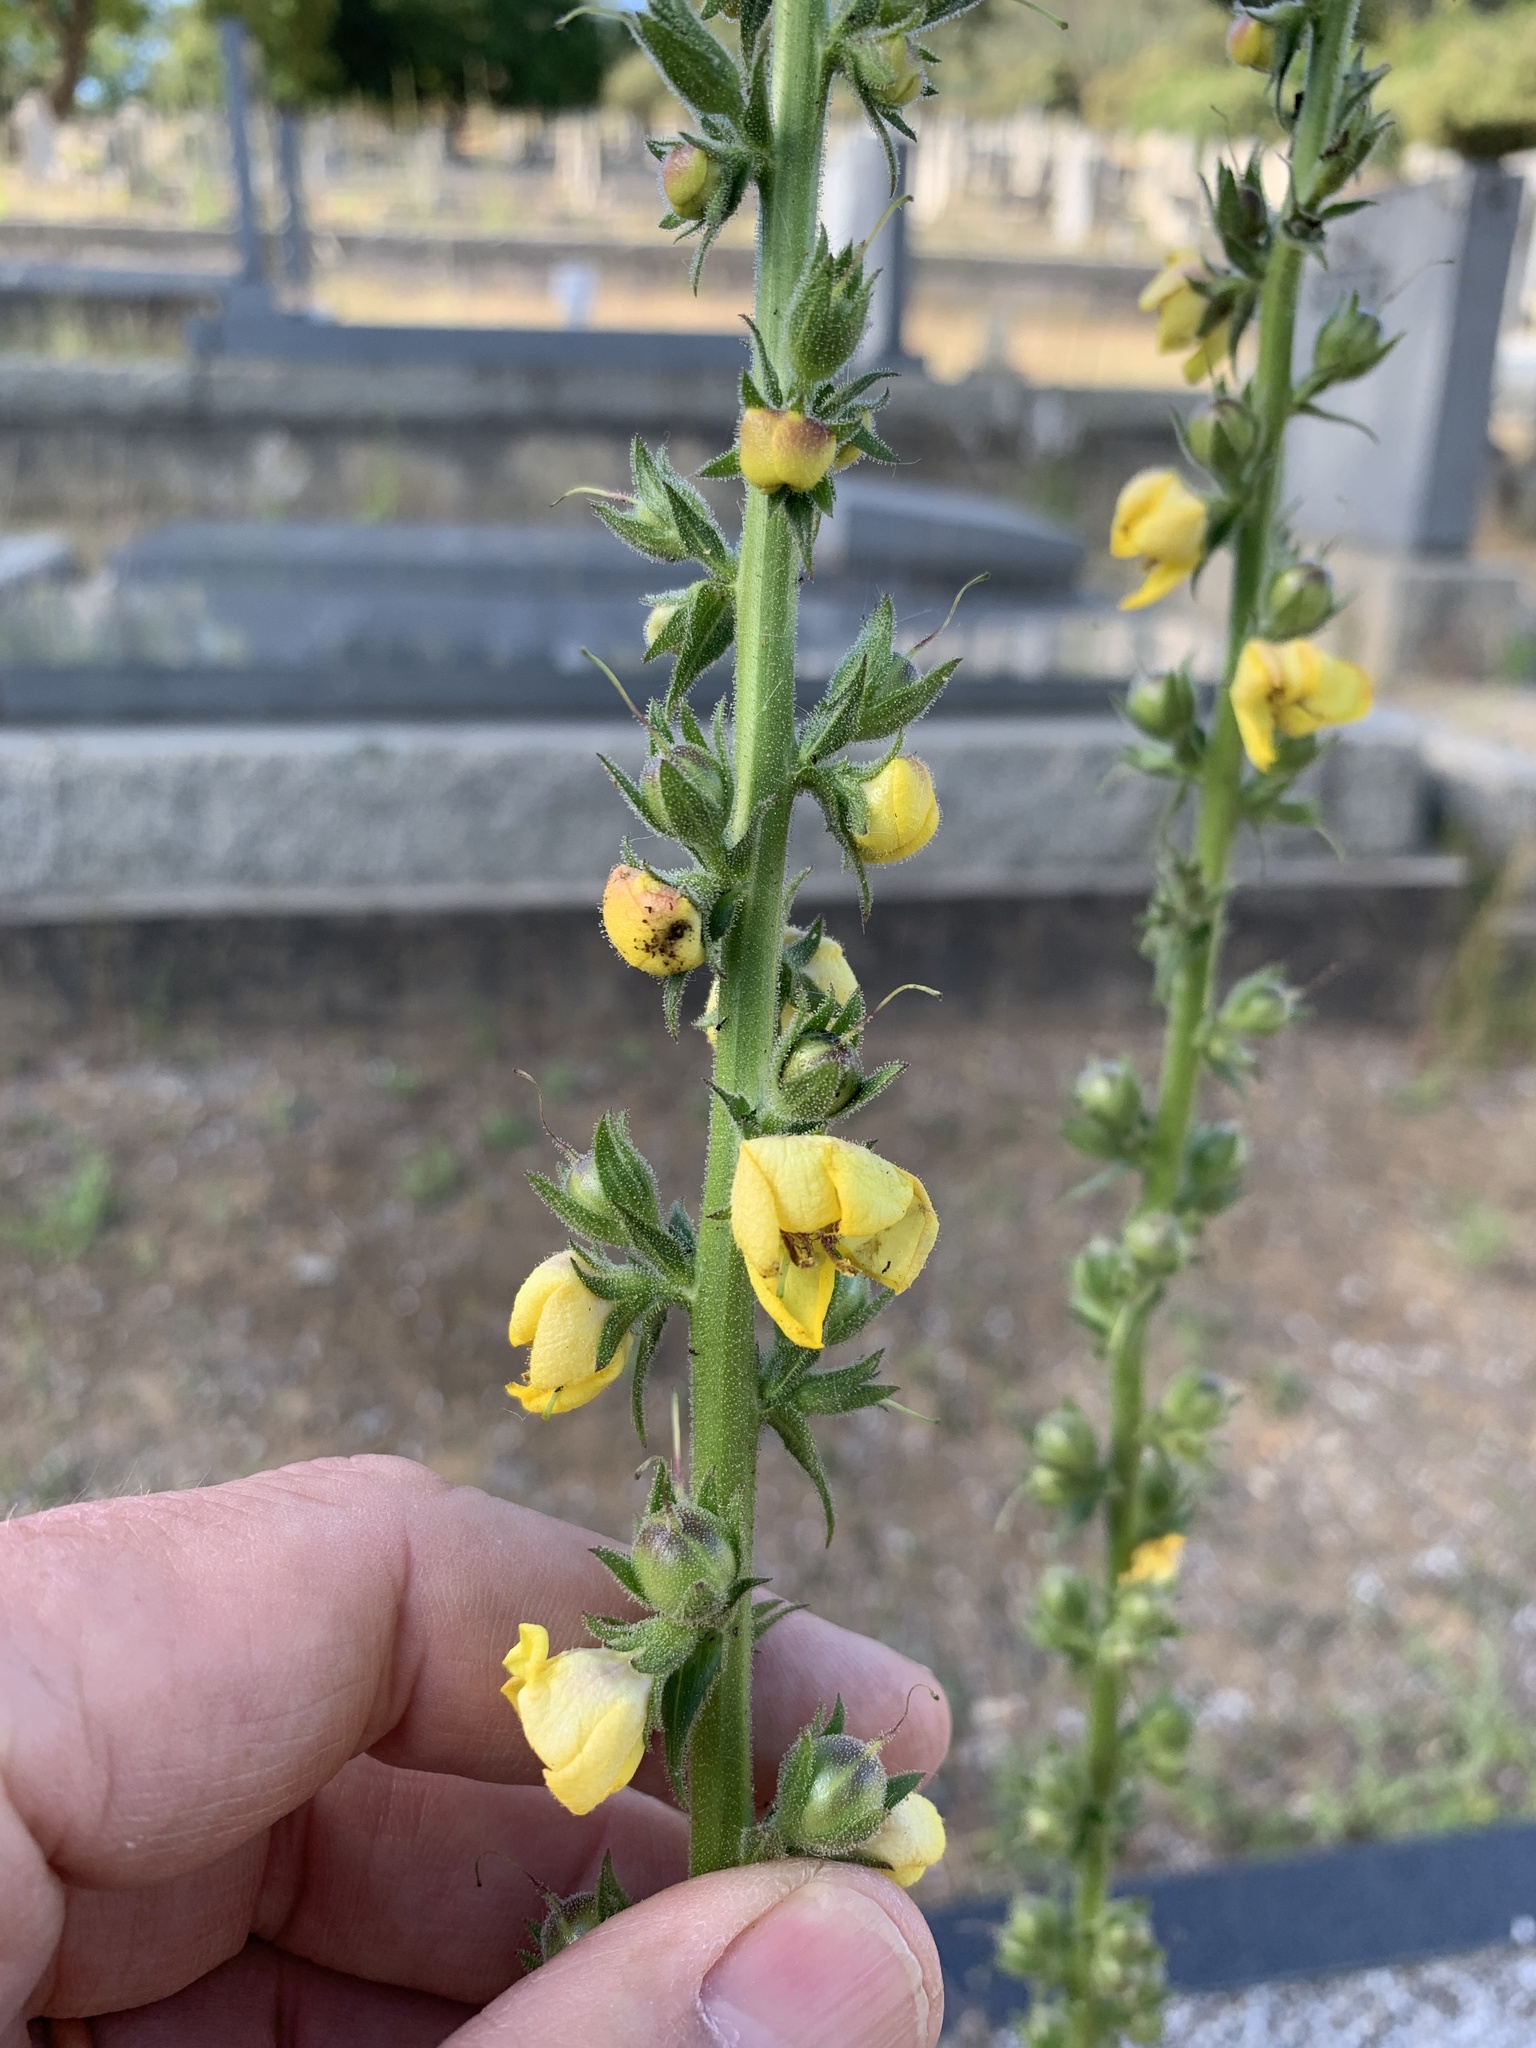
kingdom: Plantae
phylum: Tracheophyta
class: Magnoliopsida
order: Lamiales
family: Scrophulariaceae
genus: Verbascum
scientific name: Verbascum virgatum
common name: Twiggy mullein
